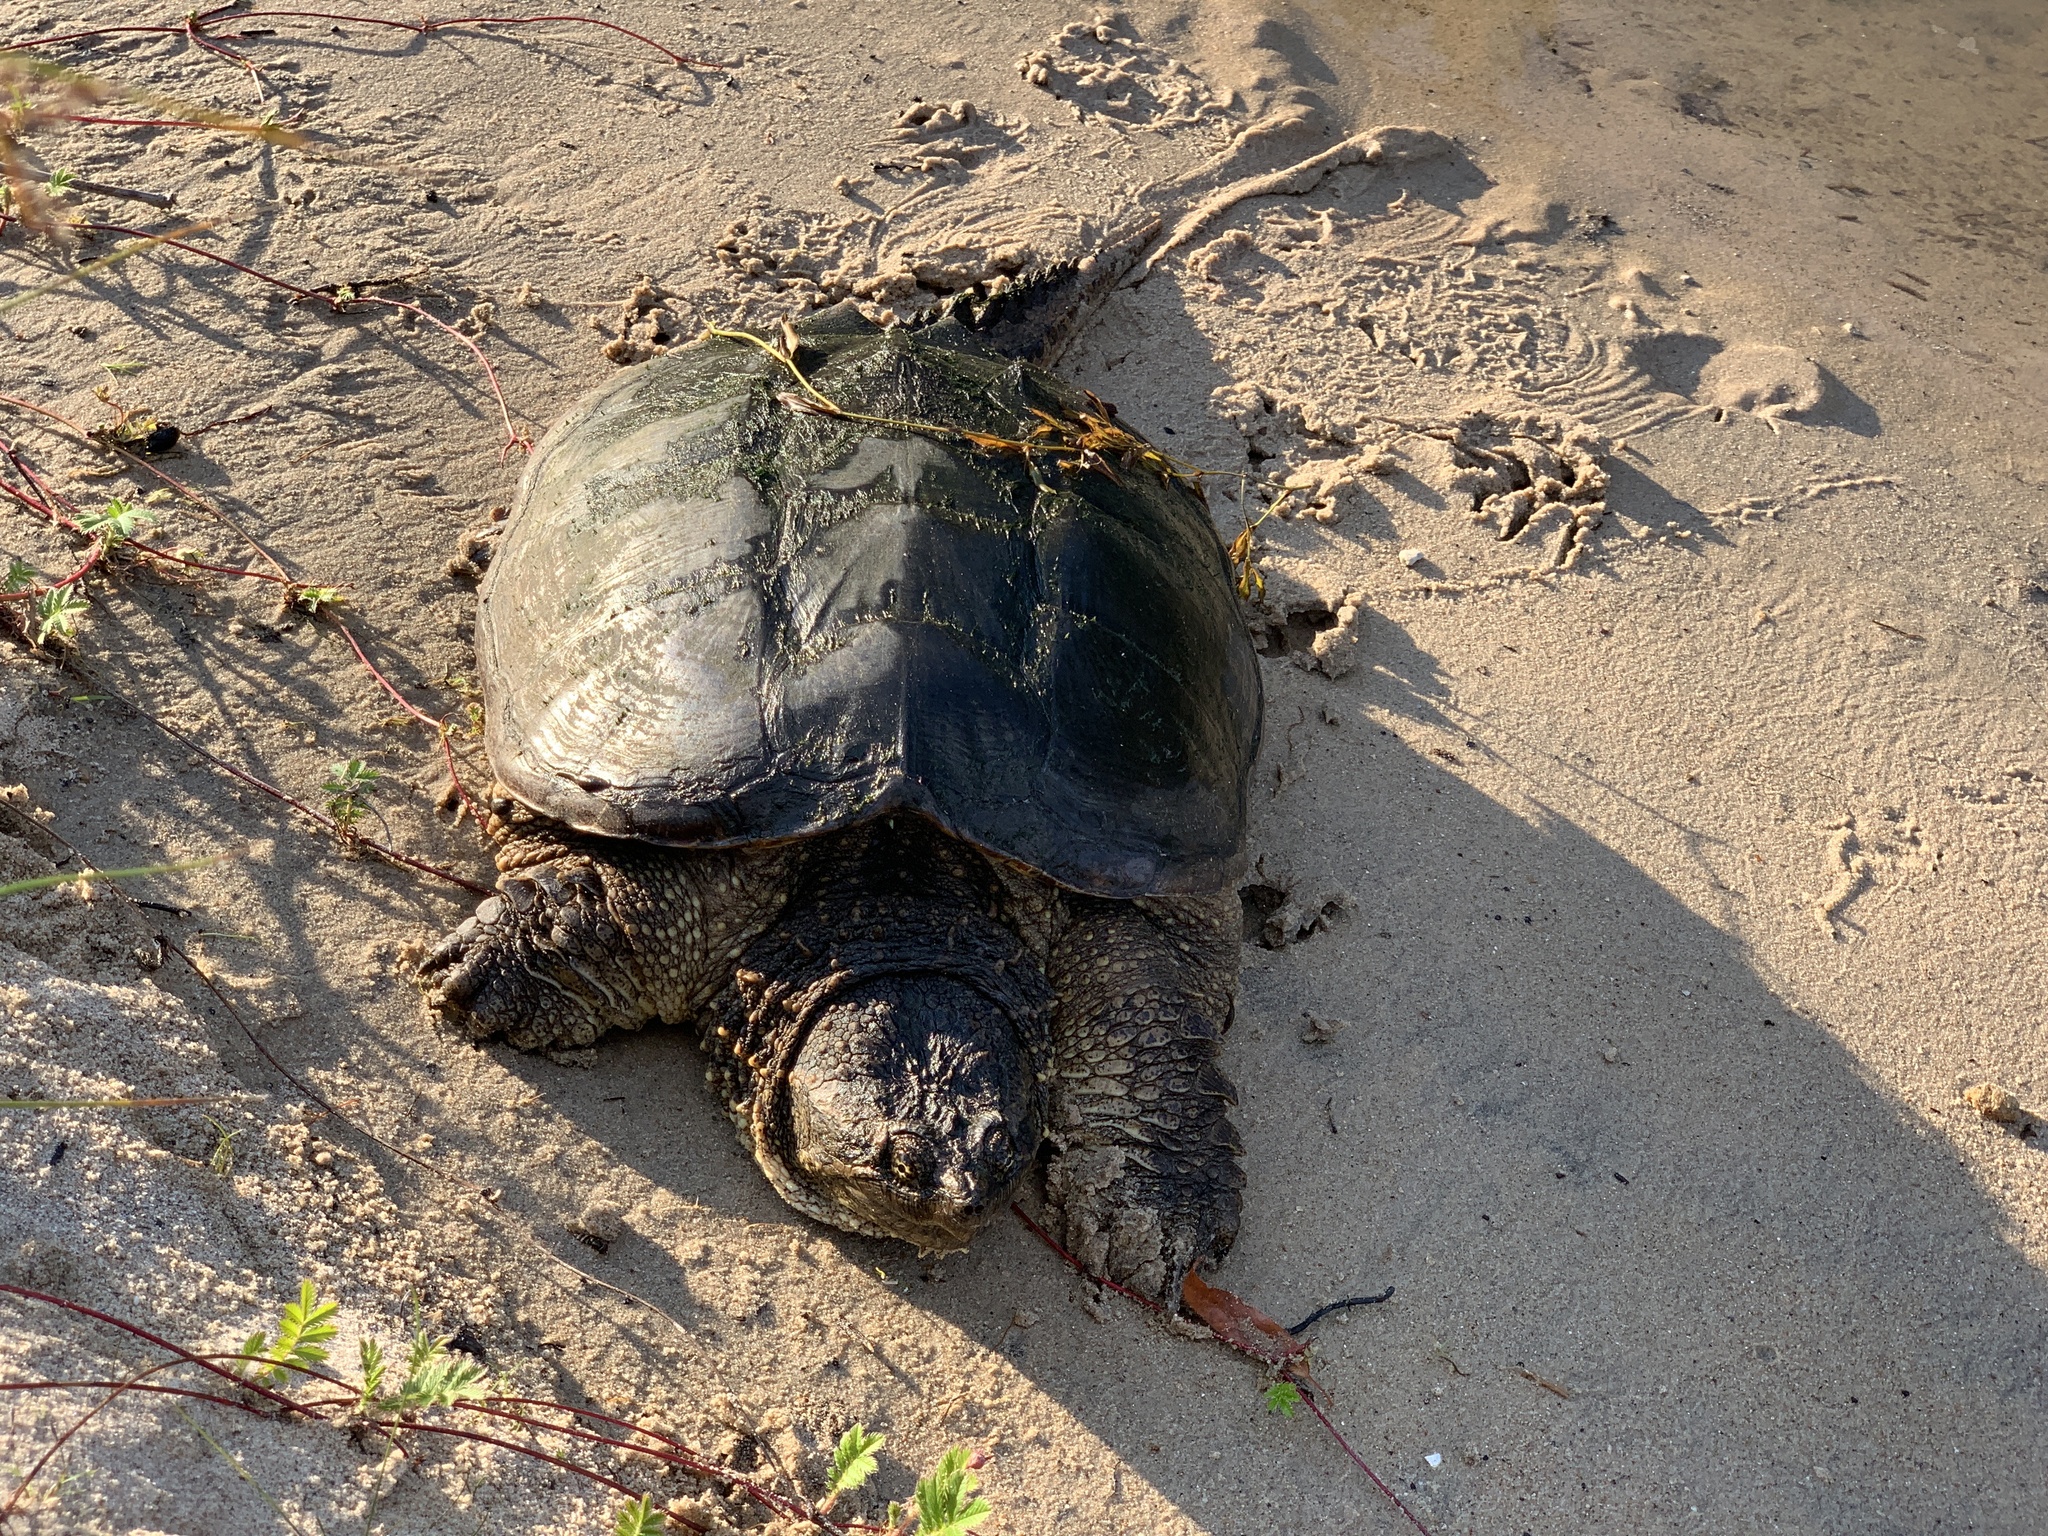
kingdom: Animalia
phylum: Chordata
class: Testudines
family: Chelydridae
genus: Chelydra
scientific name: Chelydra serpentina
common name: Common snapping turtle
